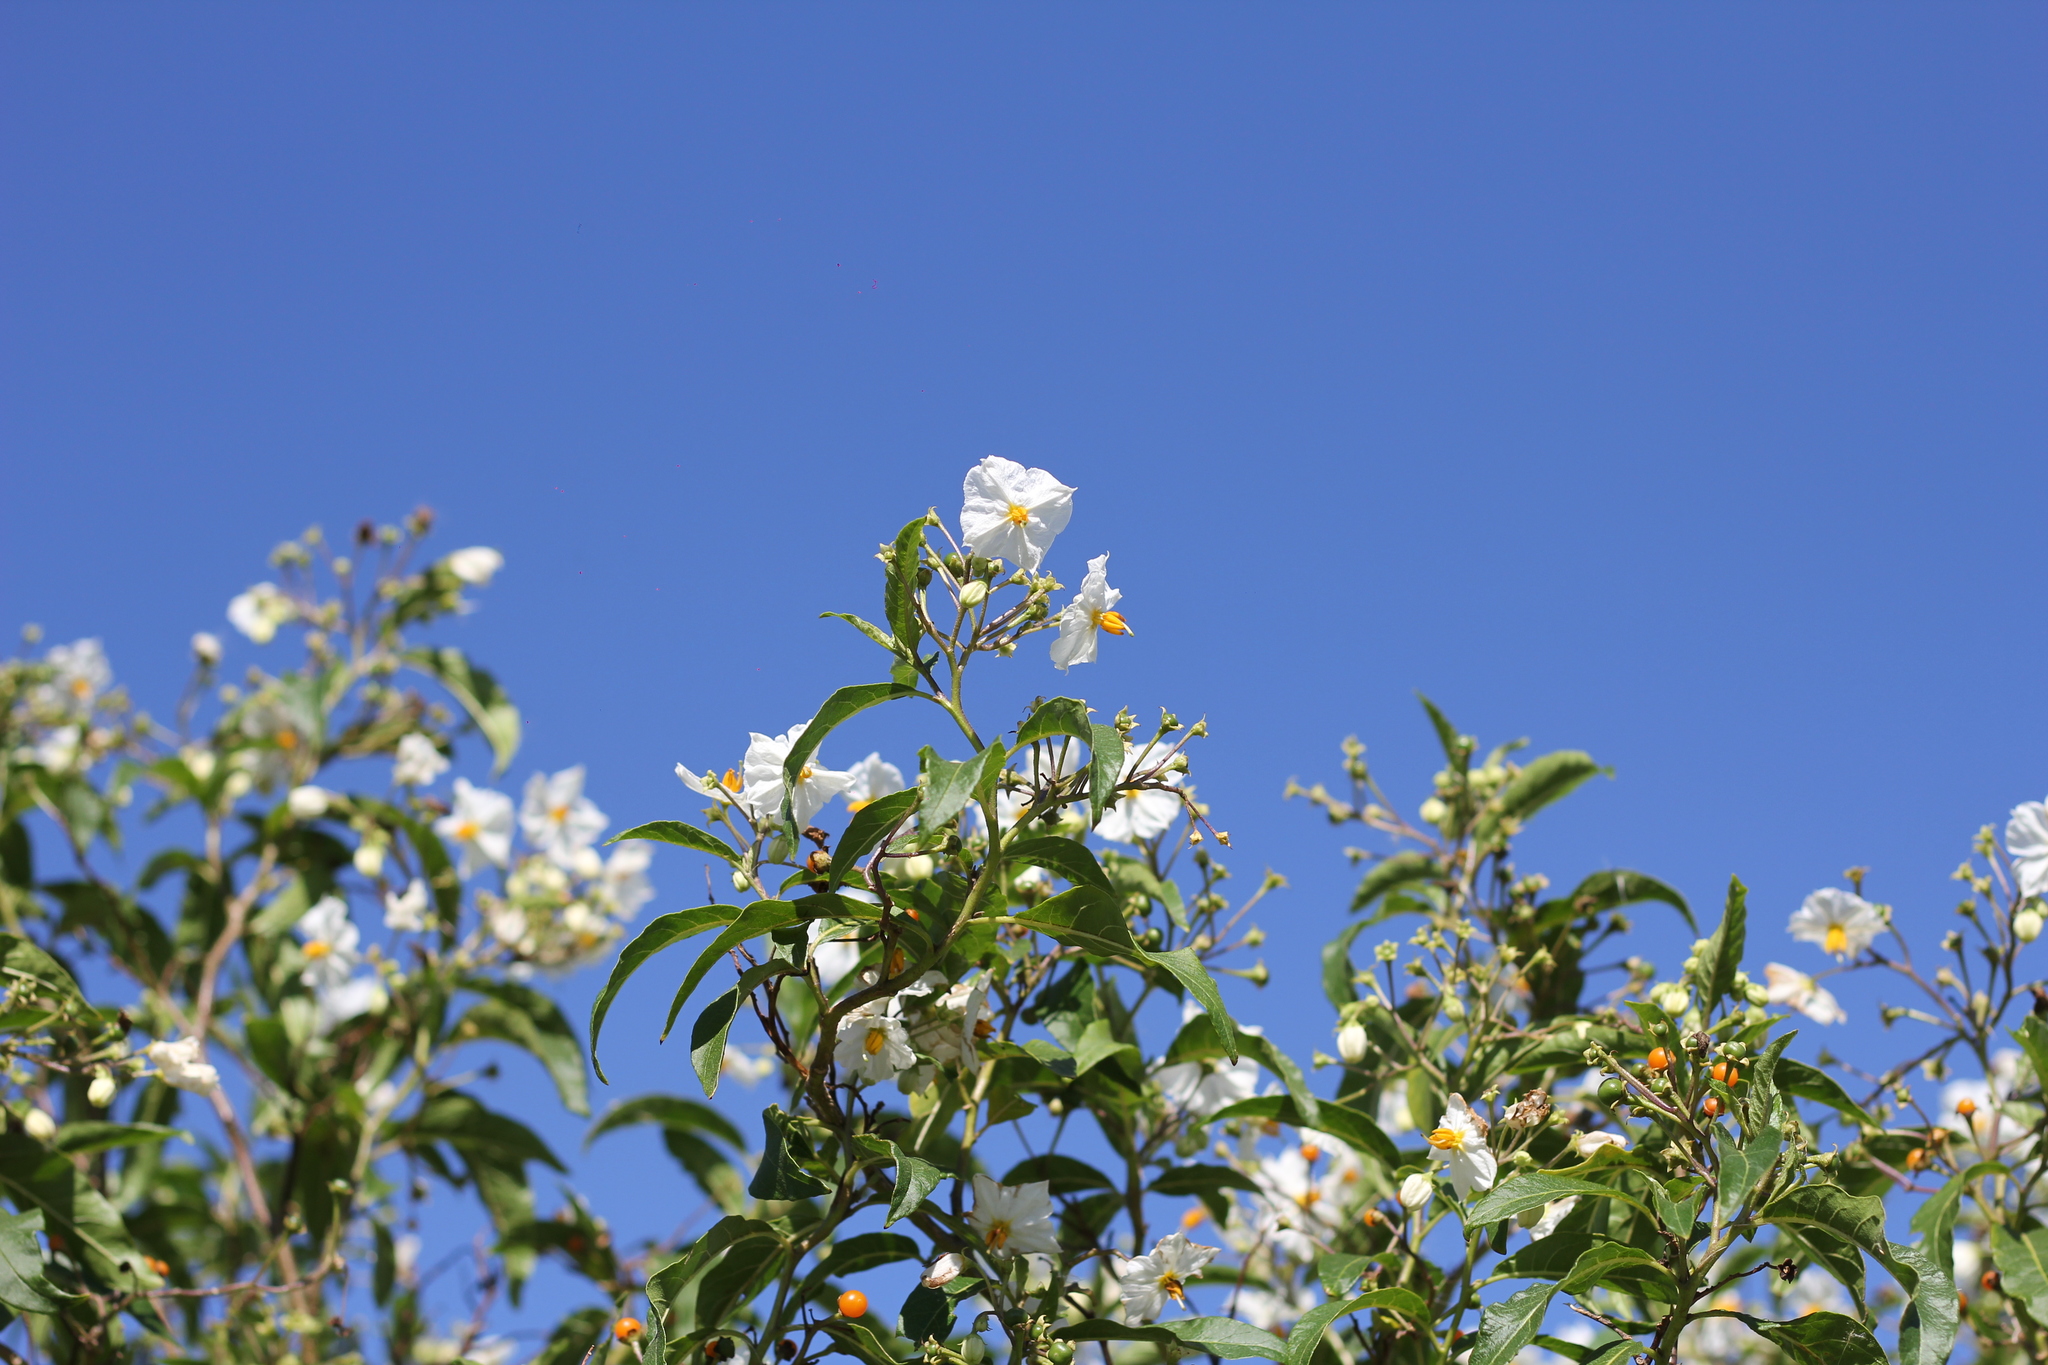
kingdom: Plantae
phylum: Tracheophyta
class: Magnoliopsida
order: Solanales
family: Solanaceae
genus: Solanum
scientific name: Solanum bonariense
